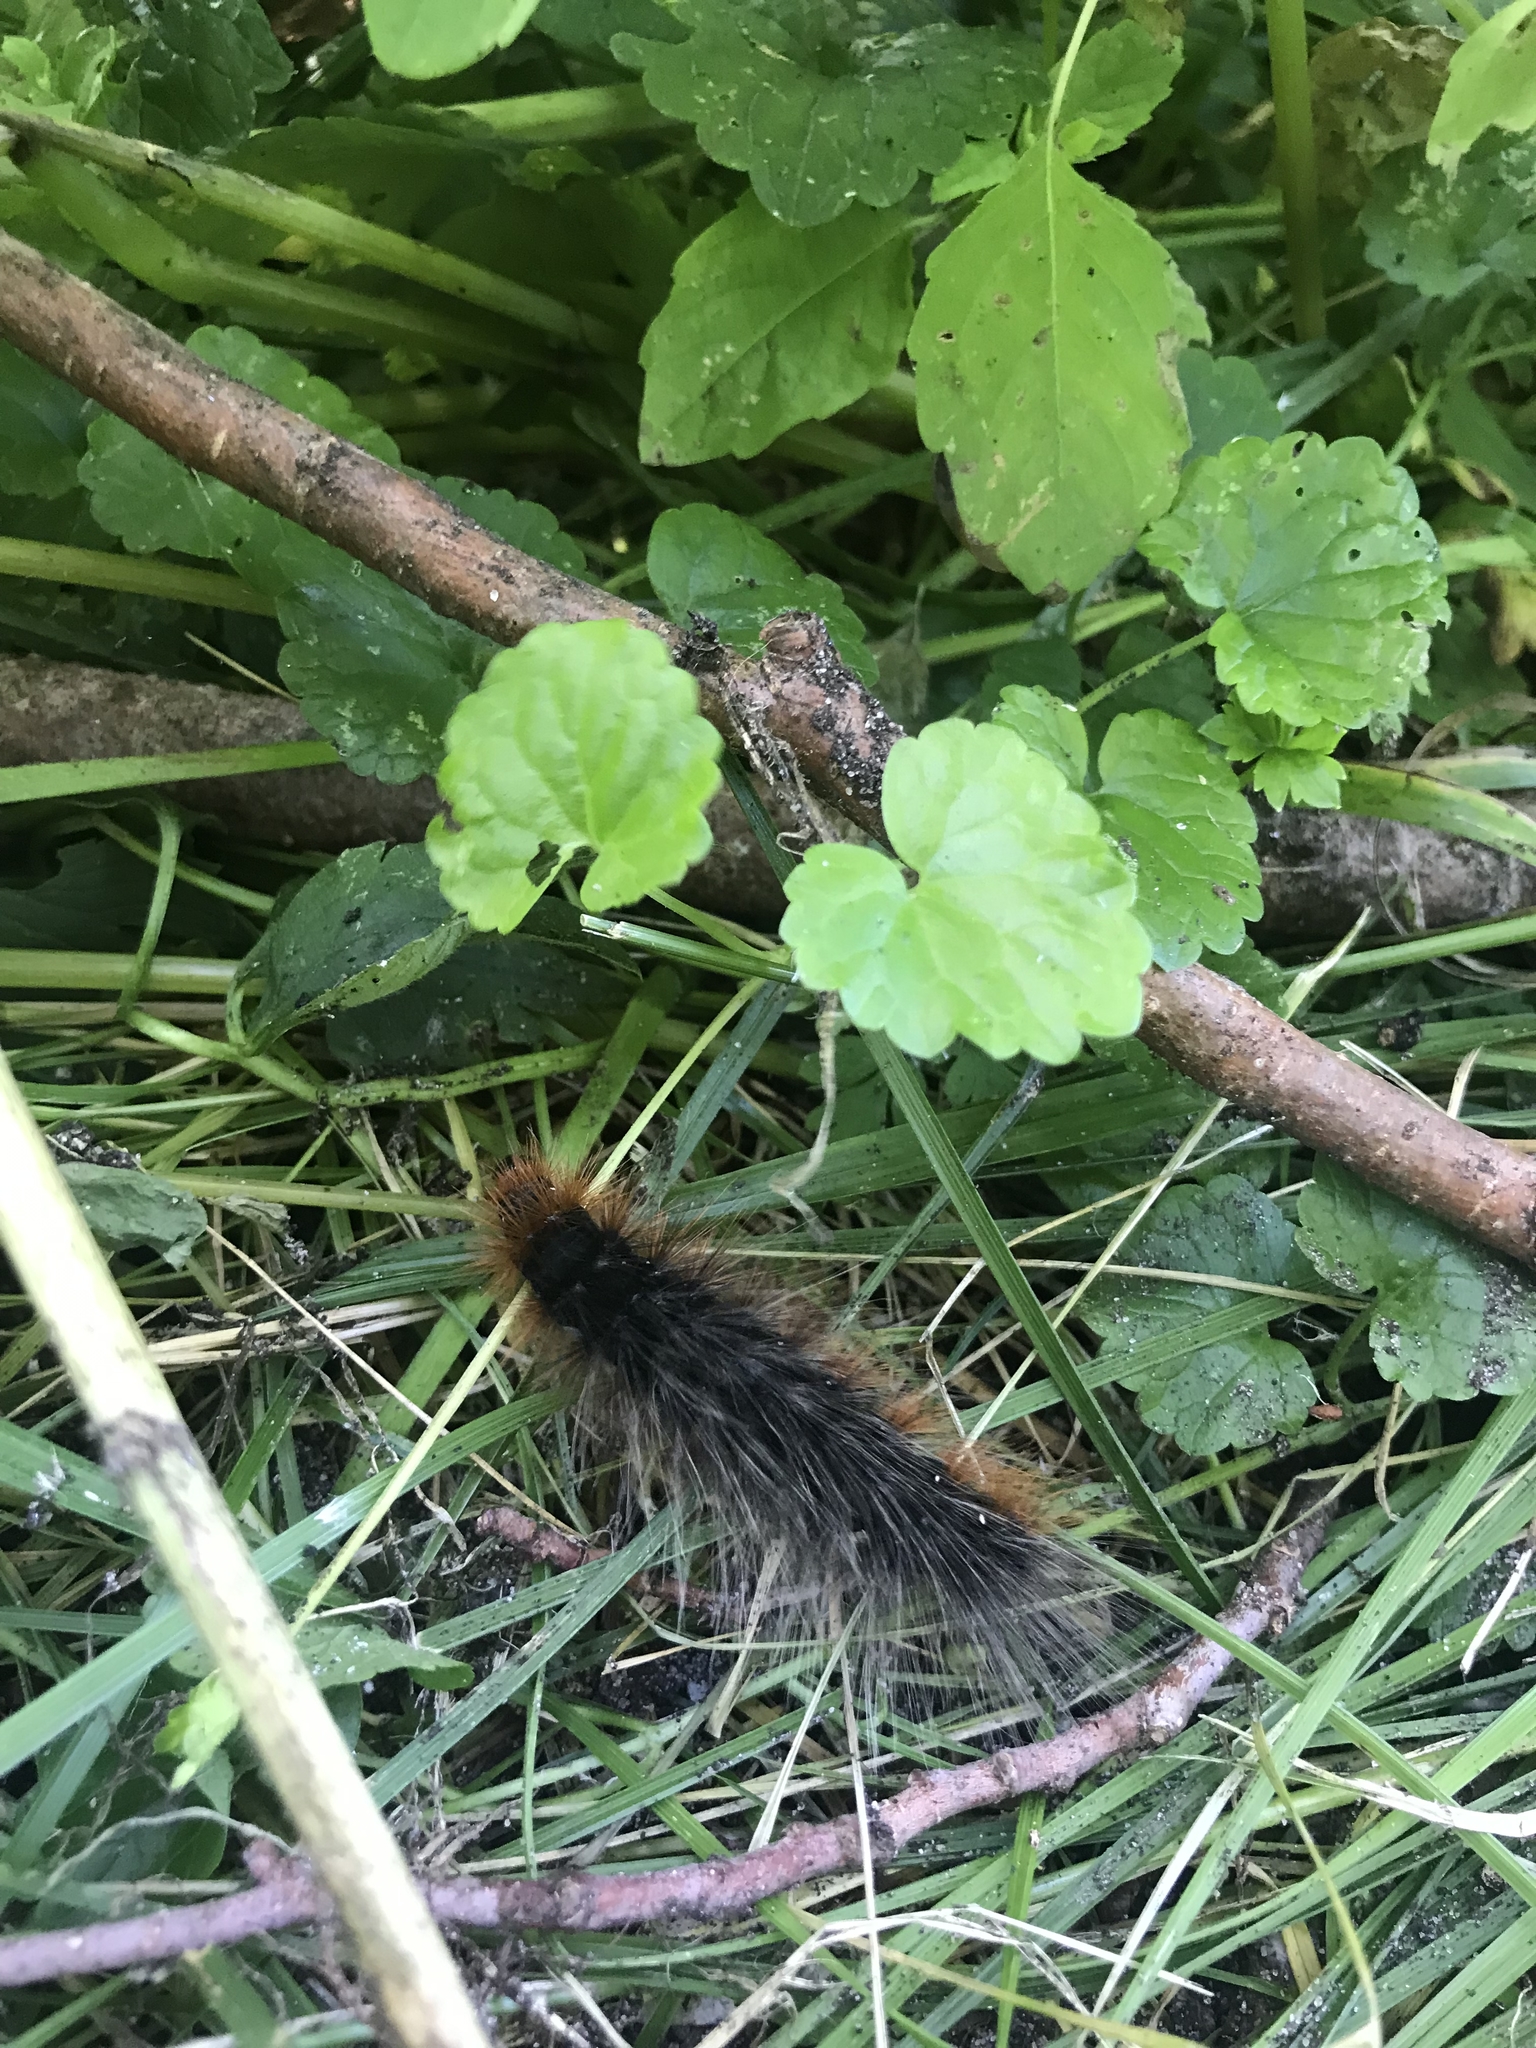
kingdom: Animalia
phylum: Arthropoda
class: Insecta
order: Lepidoptera
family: Erebidae
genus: Arctia
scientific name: Arctia caja
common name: Garden tiger
